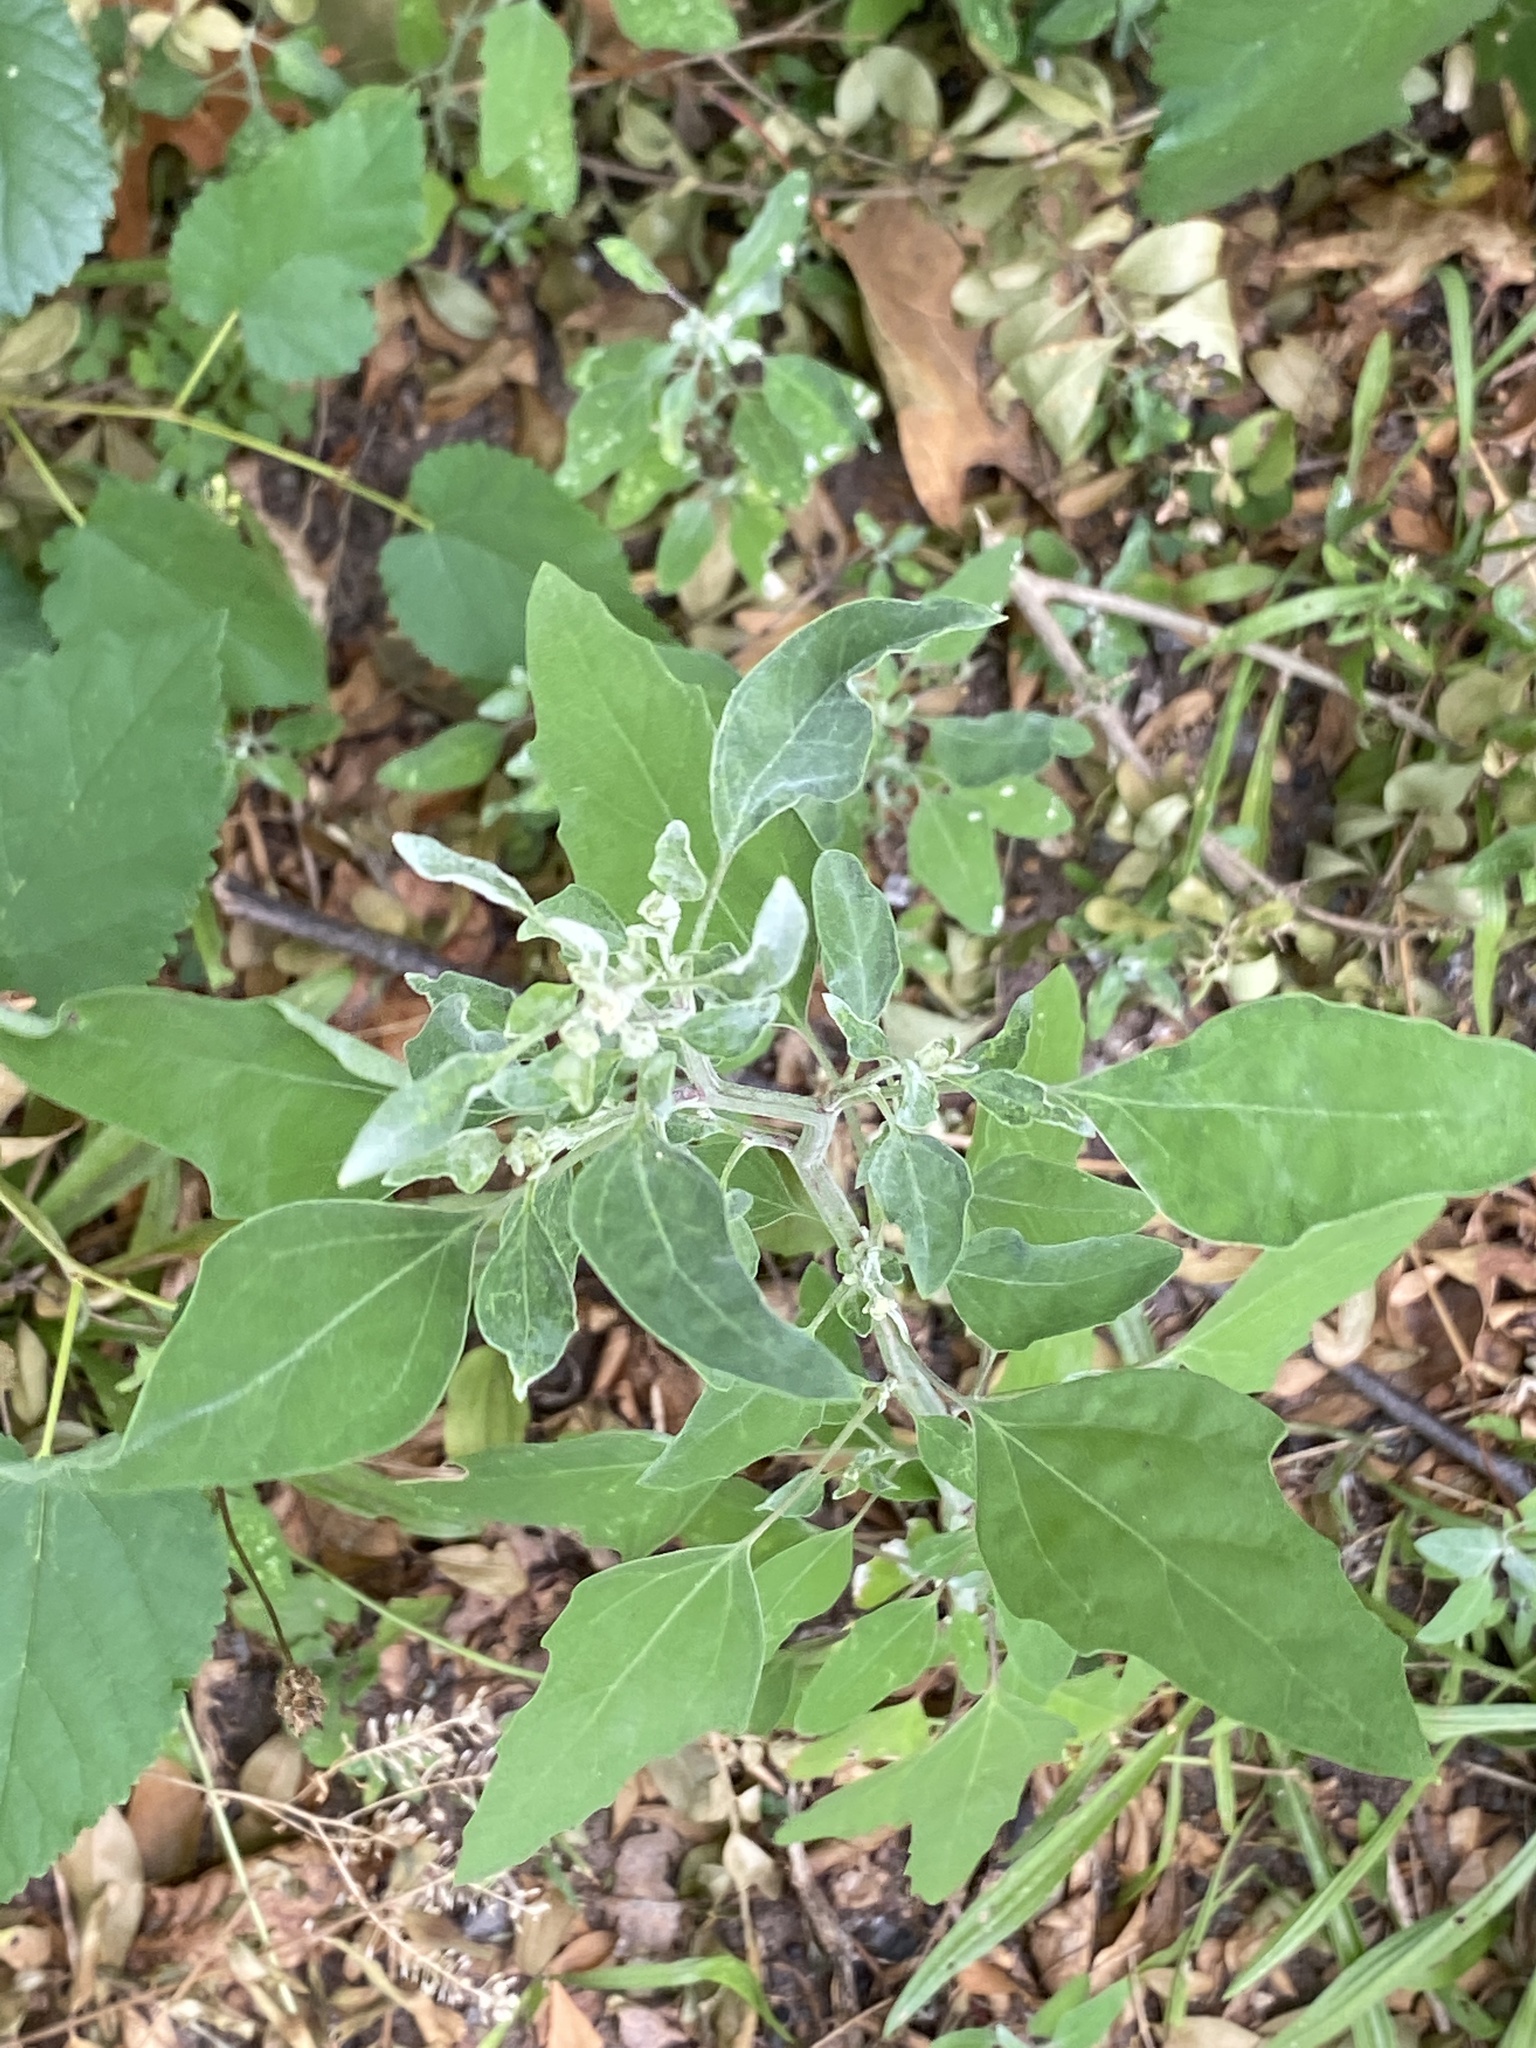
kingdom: Plantae
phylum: Tracheophyta
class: Magnoliopsida
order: Caryophyllales
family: Amaranthaceae
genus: Chenopodium
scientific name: Chenopodium album
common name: Fat-hen
